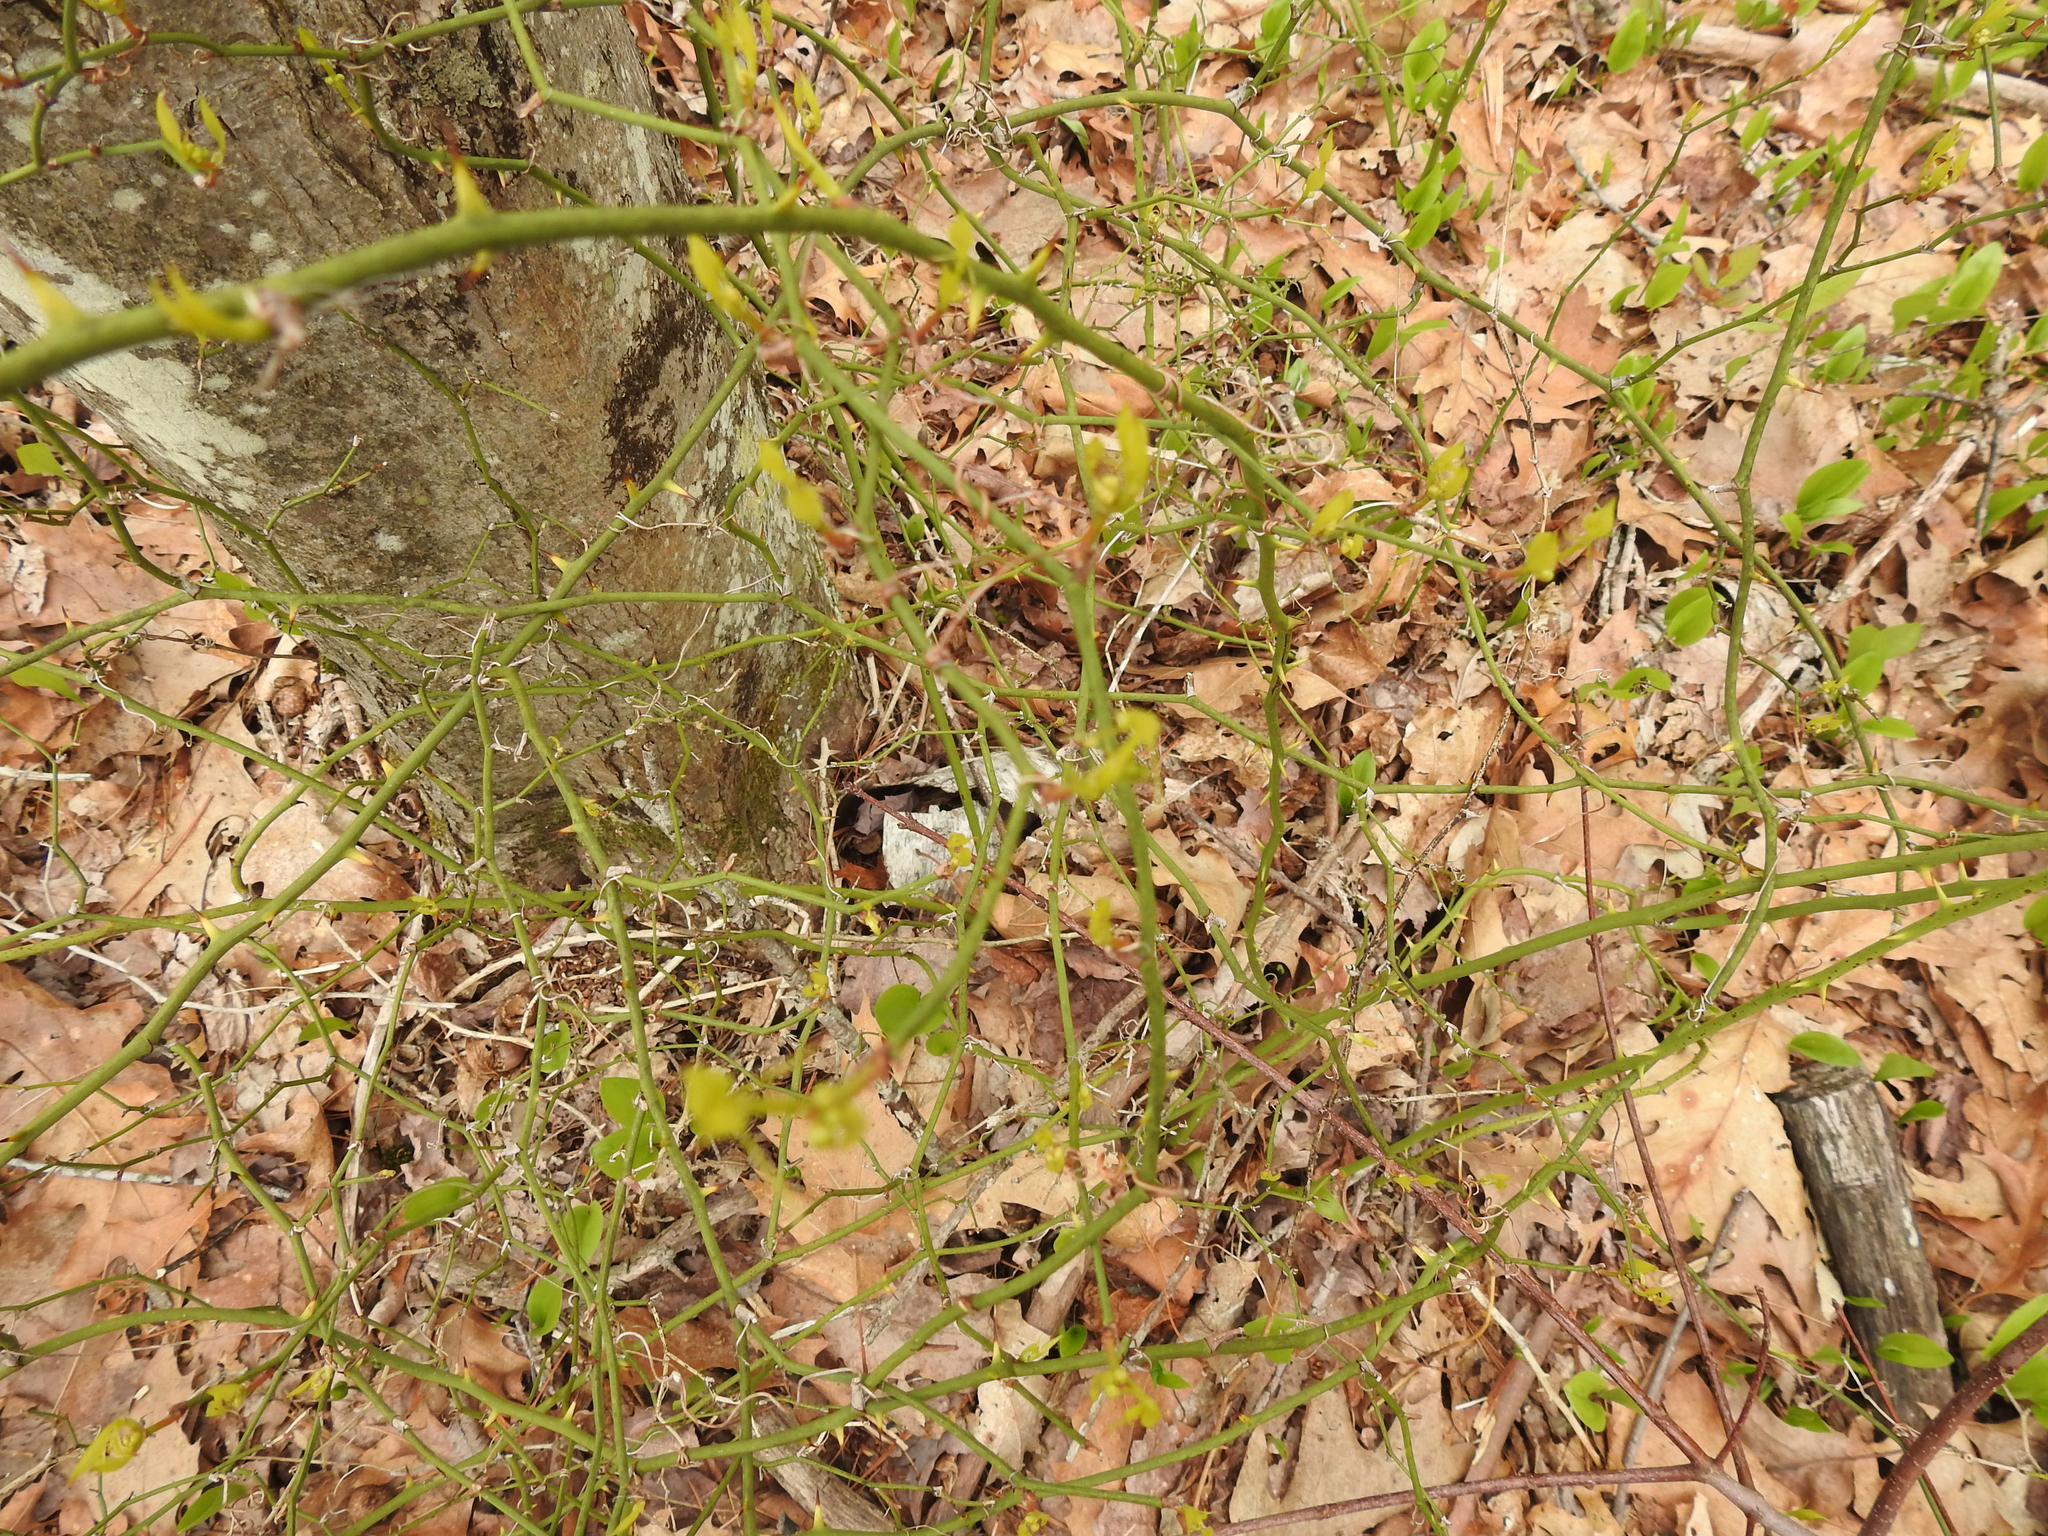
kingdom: Plantae
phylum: Tracheophyta
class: Liliopsida
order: Liliales
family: Smilacaceae
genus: Smilax
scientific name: Smilax rotundifolia
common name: Bullbriar
